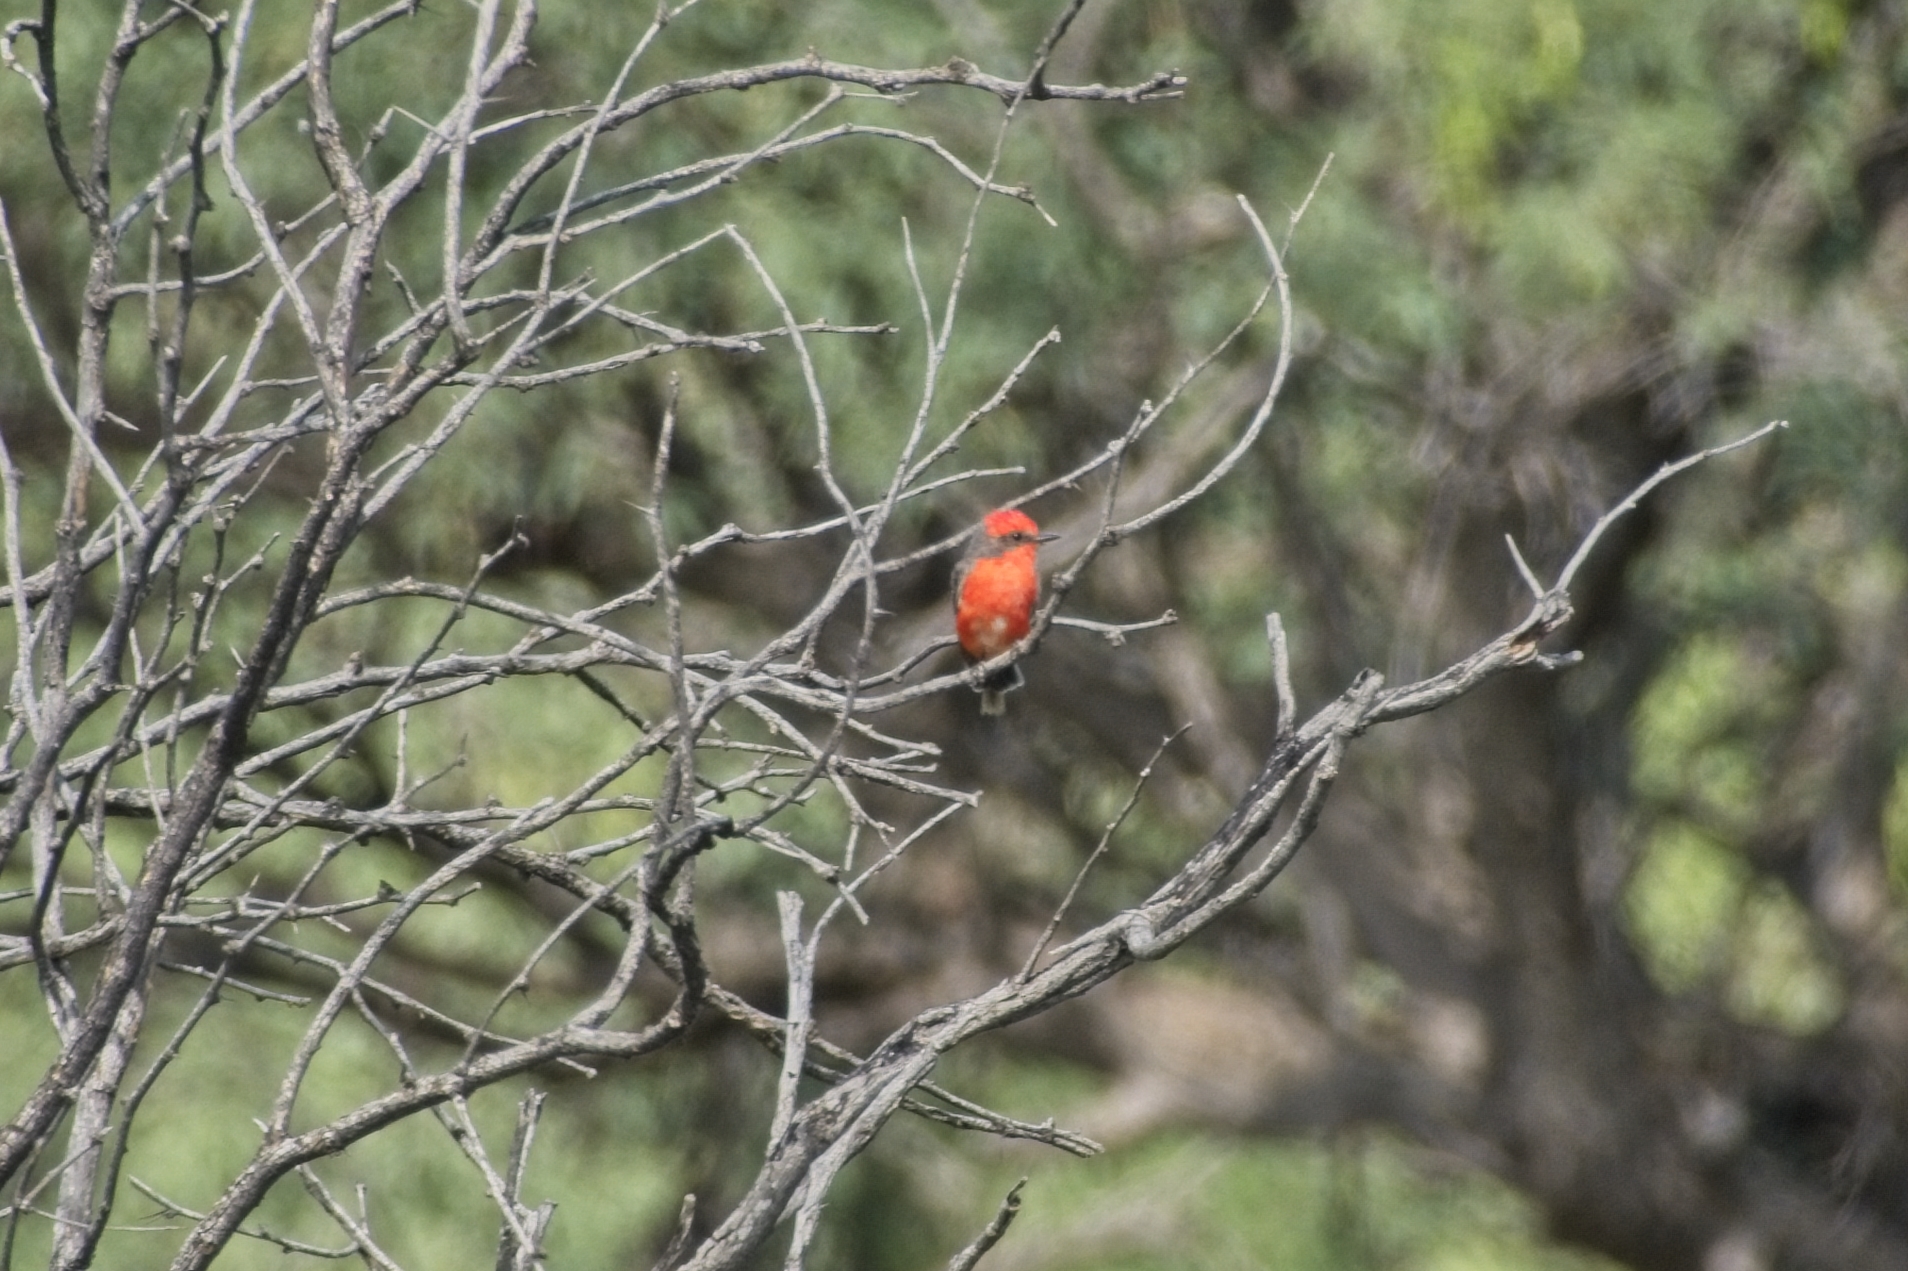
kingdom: Animalia
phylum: Chordata
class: Aves
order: Passeriformes
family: Tyrannidae
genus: Pyrocephalus
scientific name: Pyrocephalus rubinus
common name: Vermilion flycatcher
